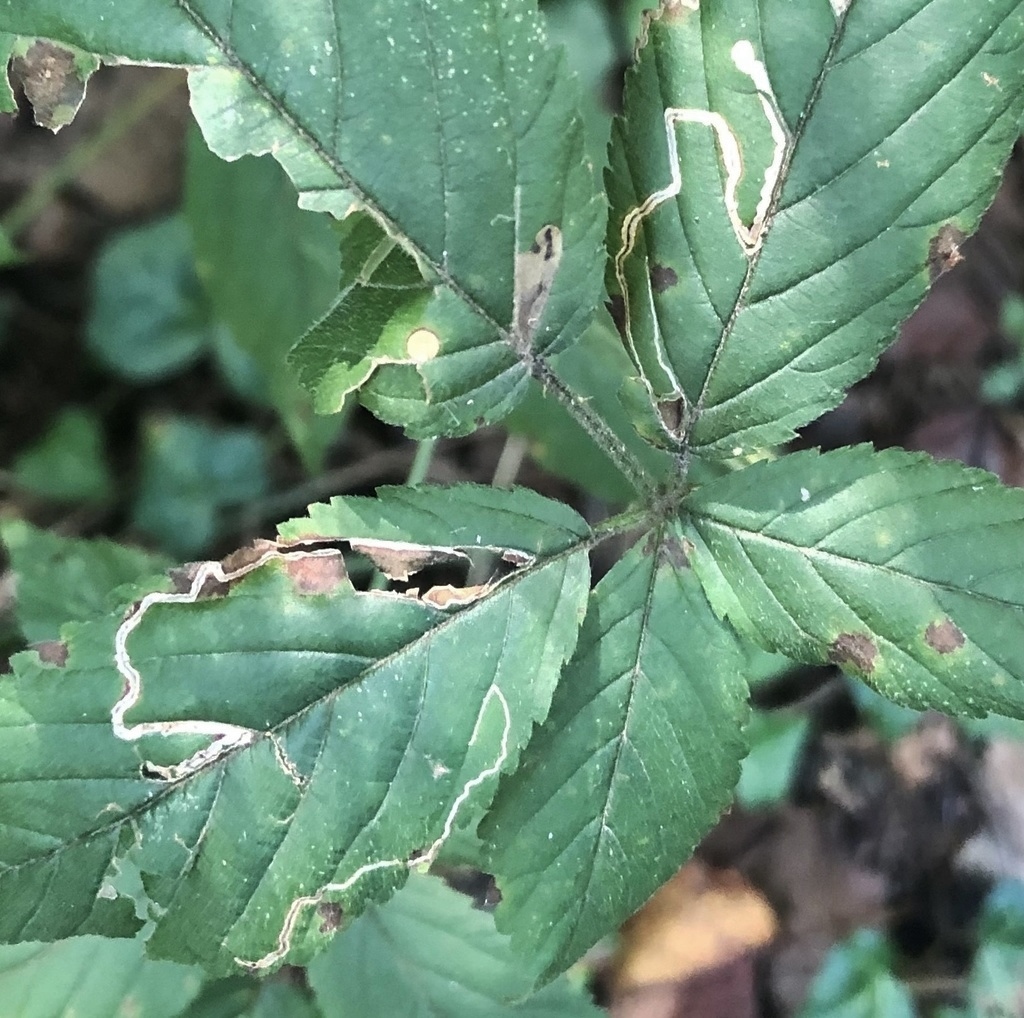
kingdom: Animalia
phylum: Arthropoda
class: Insecta
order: Lepidoptera
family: Nepticulidae
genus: Stigmella
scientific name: Stigmella villosella
